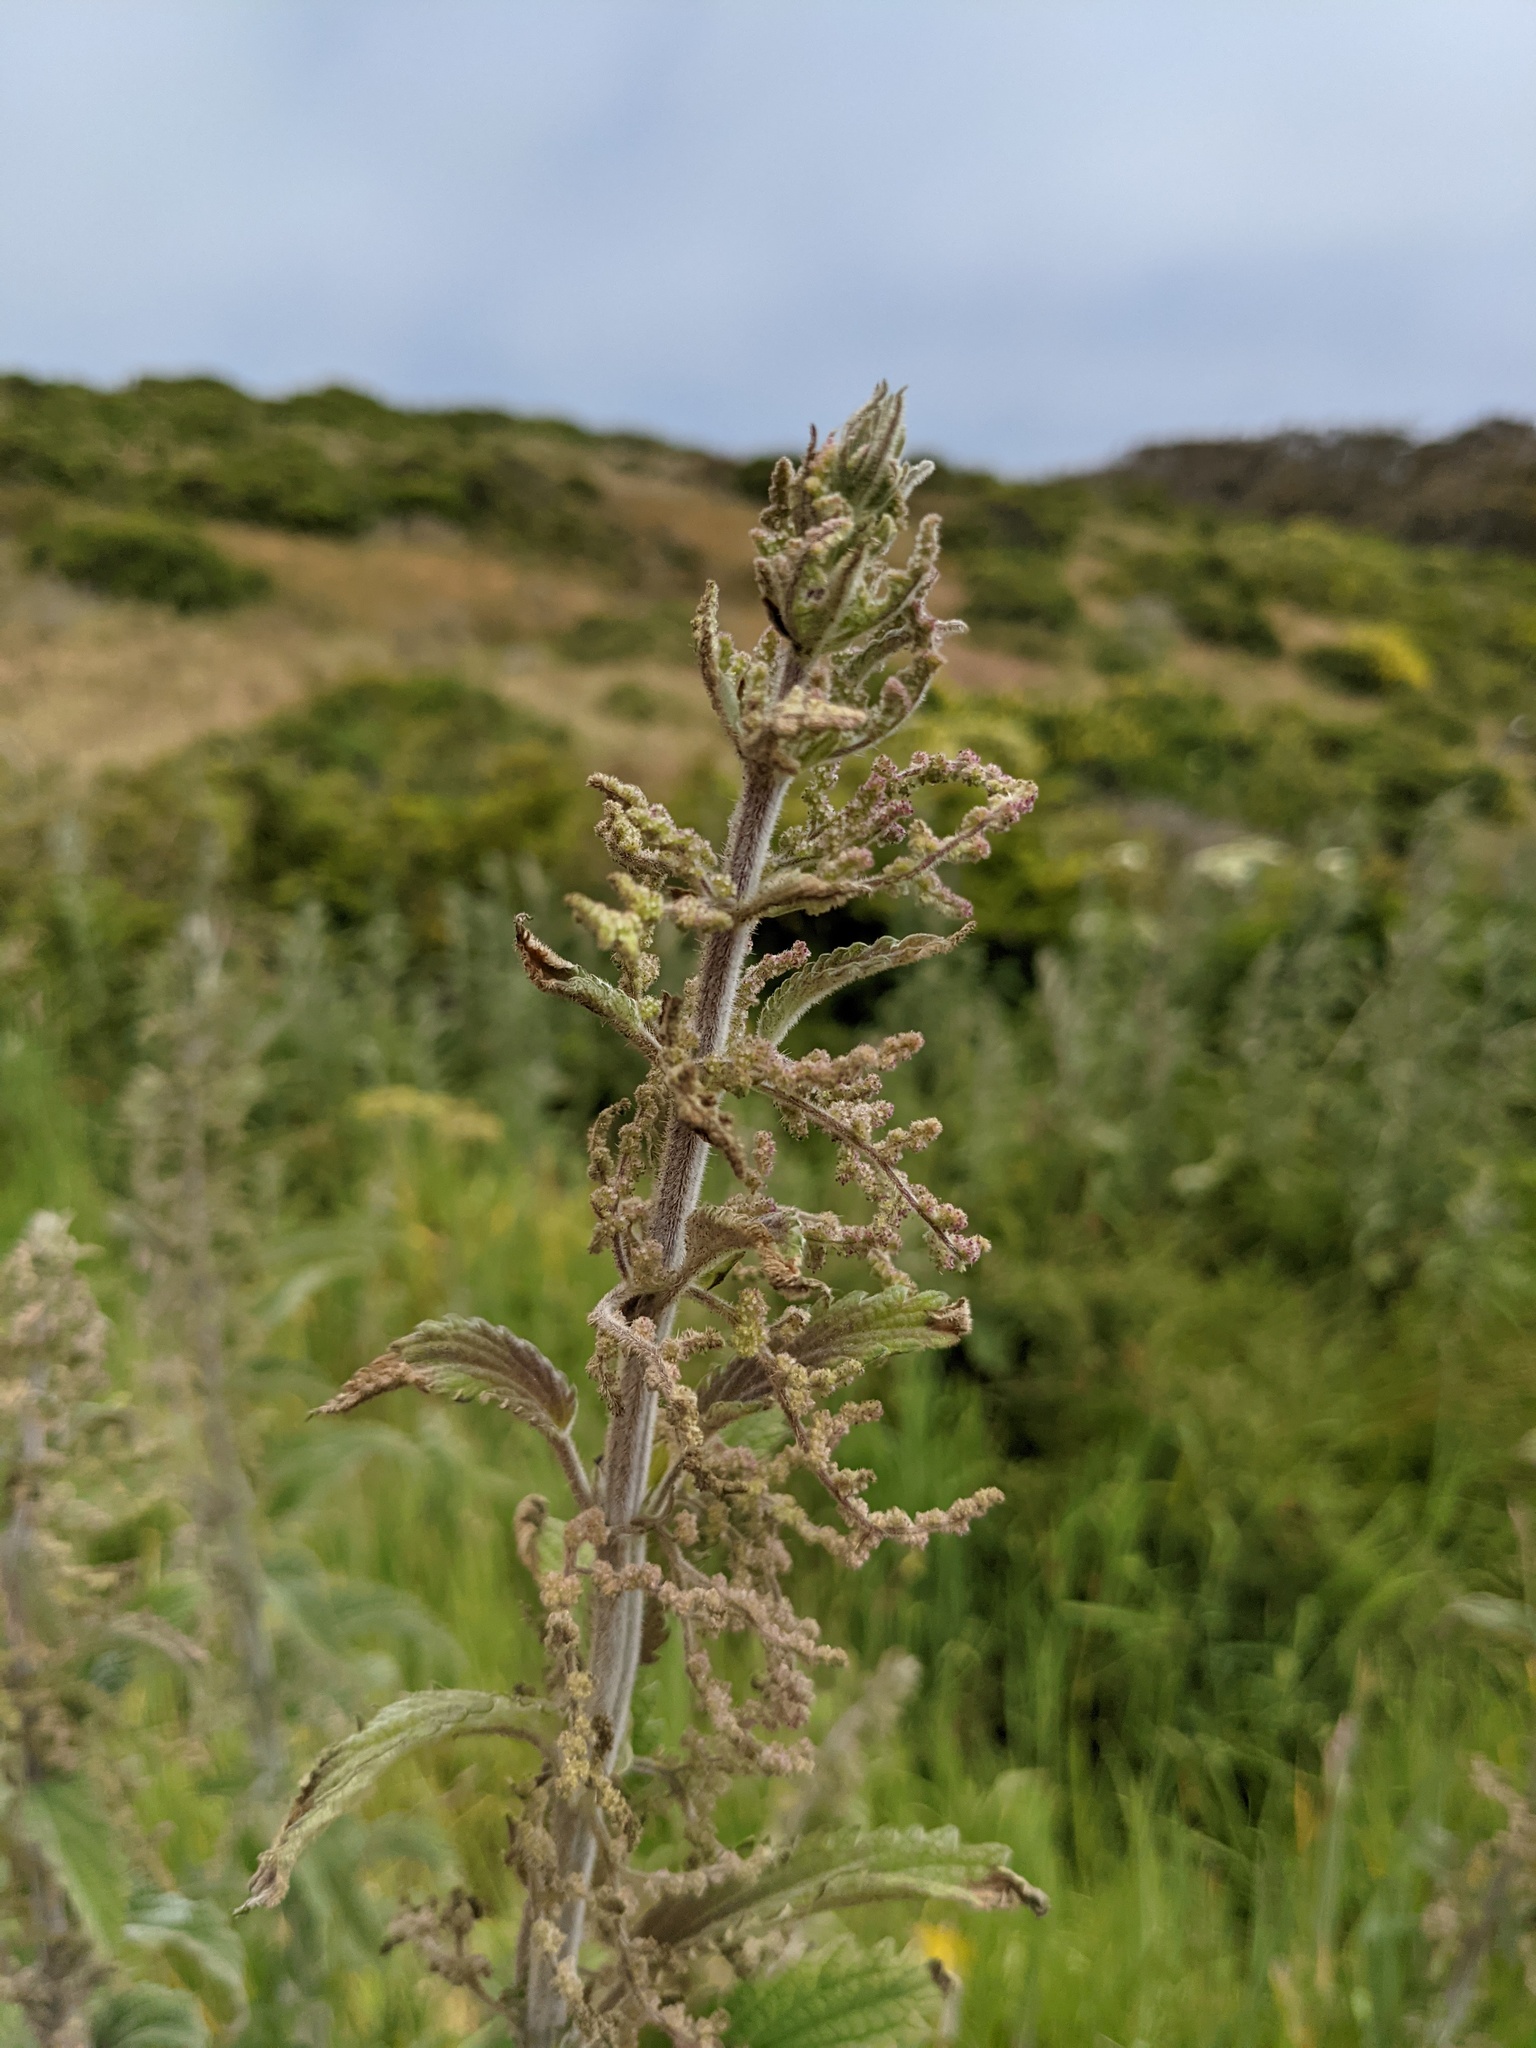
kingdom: Plantae
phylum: Tracheophyta
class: Magnoliopsida
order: Rosales
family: Urticaceae
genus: Urtica
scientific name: Urtica dioica
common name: Common nettle
